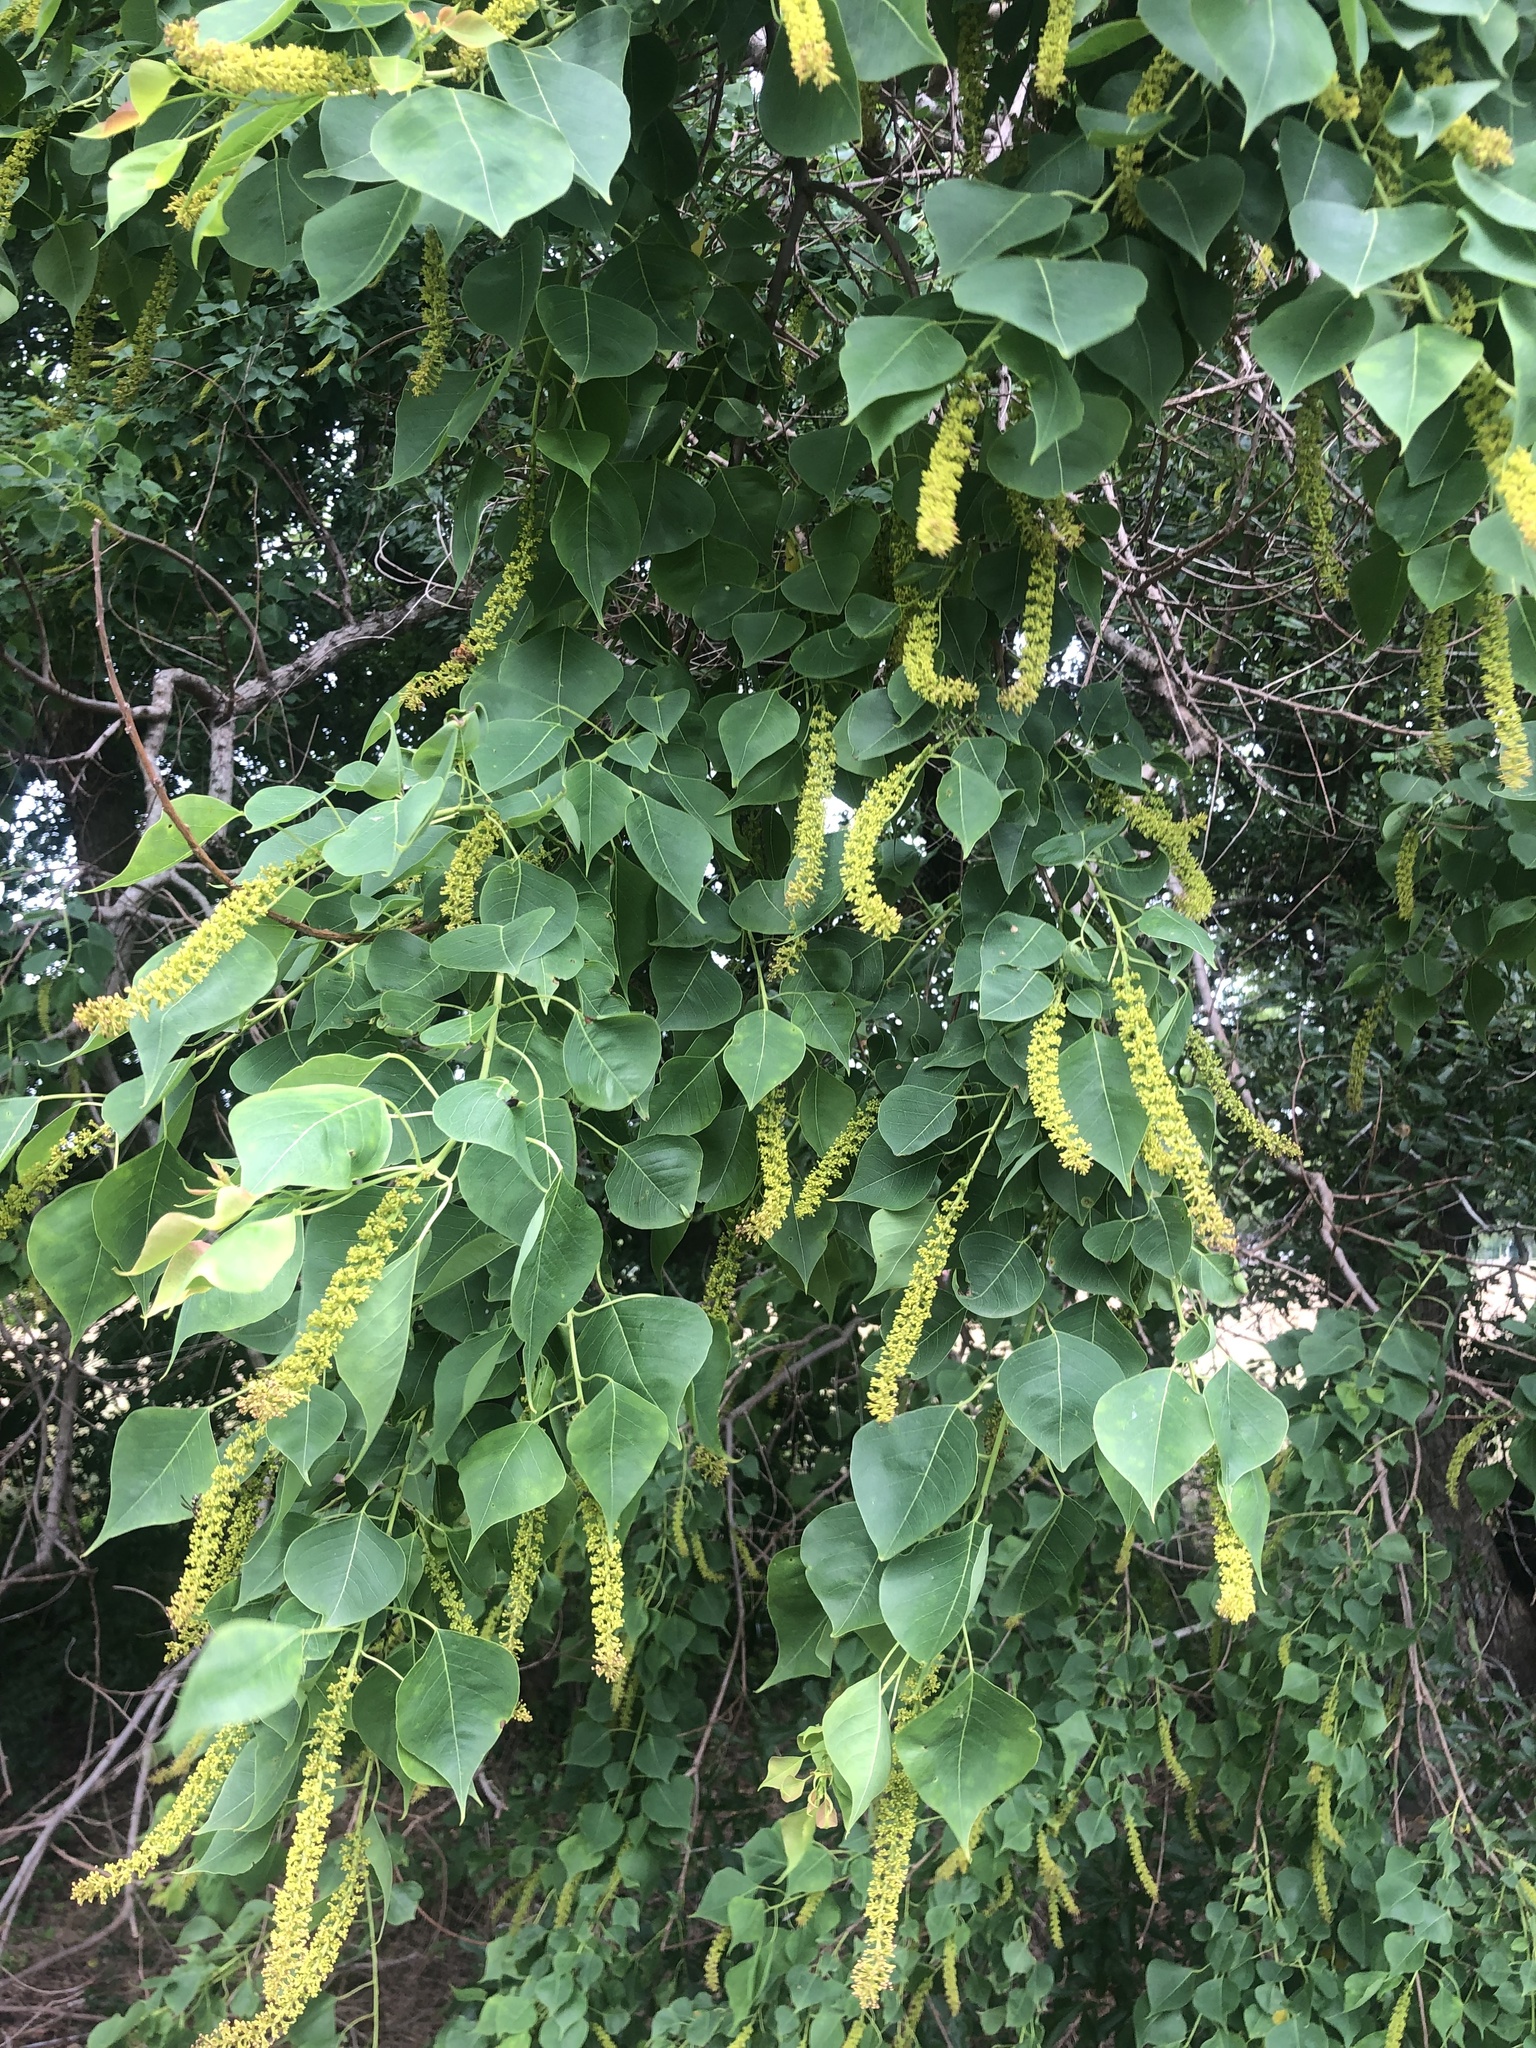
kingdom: Plantae
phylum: Tracheophyta
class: Magnoliopsida
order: Malpighiales
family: Euphorbiaceae
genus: Triadica
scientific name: Triadica sebifera
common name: Chinese tallow
